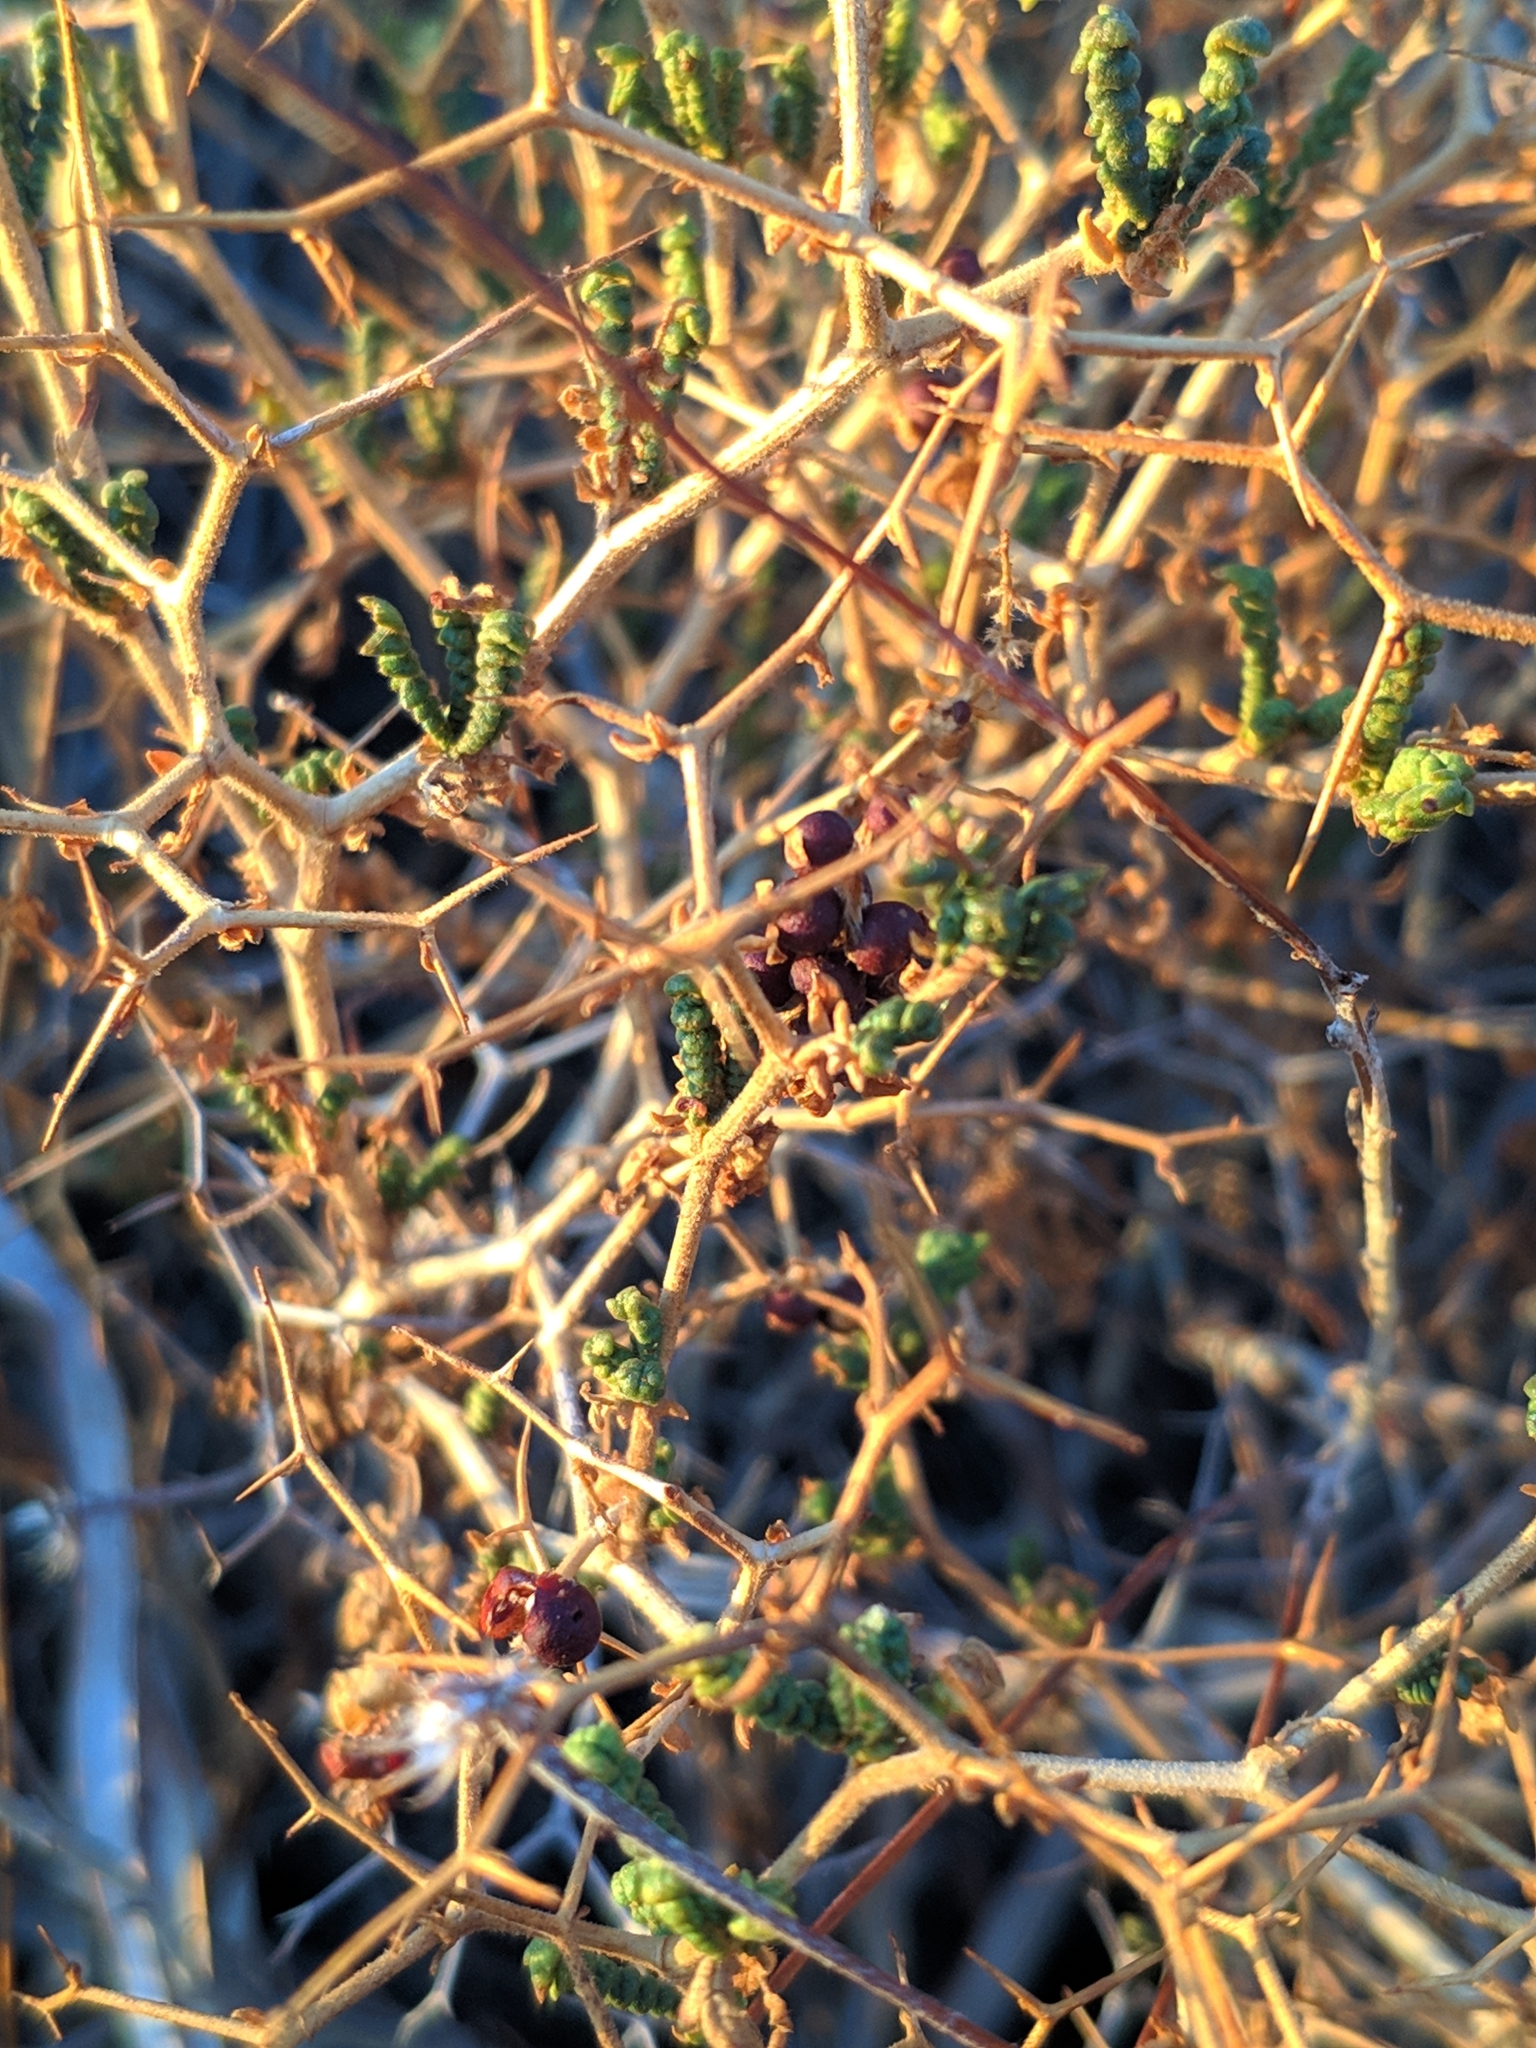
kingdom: Plantae
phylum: Tracheophyta
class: Magnoliopsida
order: Rosales
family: Rosaceae
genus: Sarcopoterium
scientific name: Sarcopoterium spinosum
